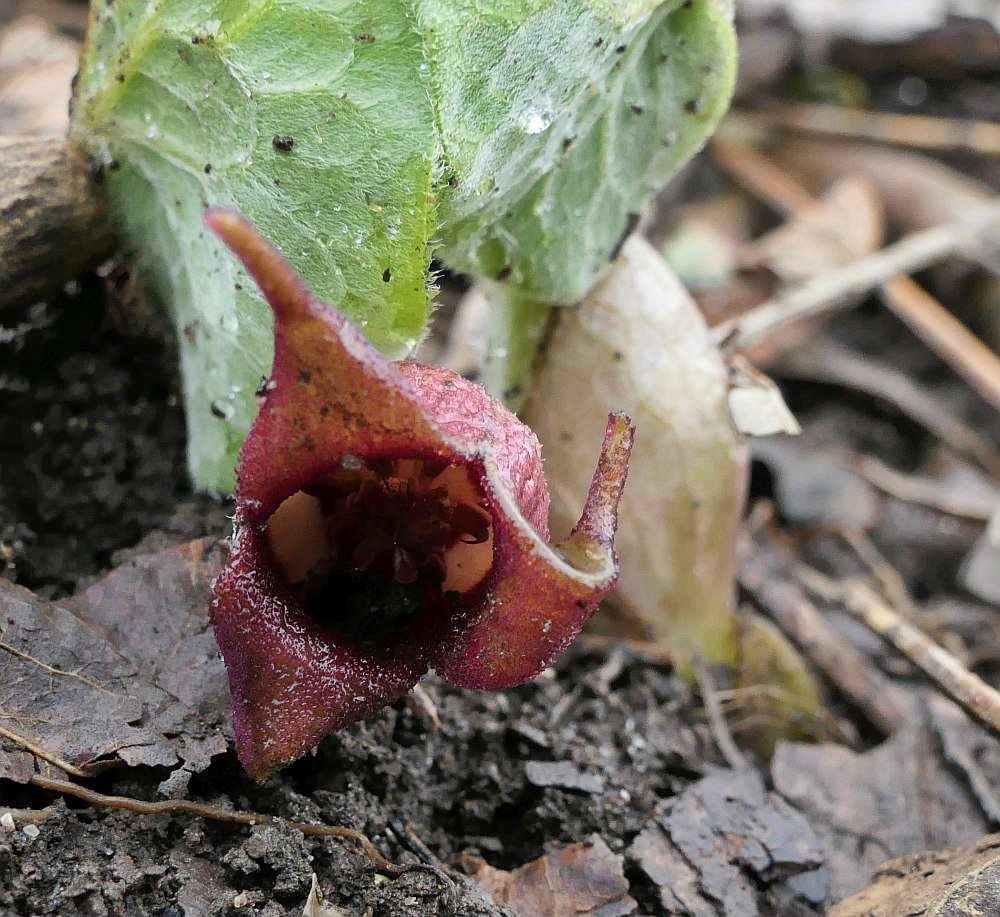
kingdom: Plantae
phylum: Tracheophyta
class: Magnoliopsida
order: Piperales
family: Aristolochiaceae
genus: Asarum
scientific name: Asarum canadense
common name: Wild ginger
